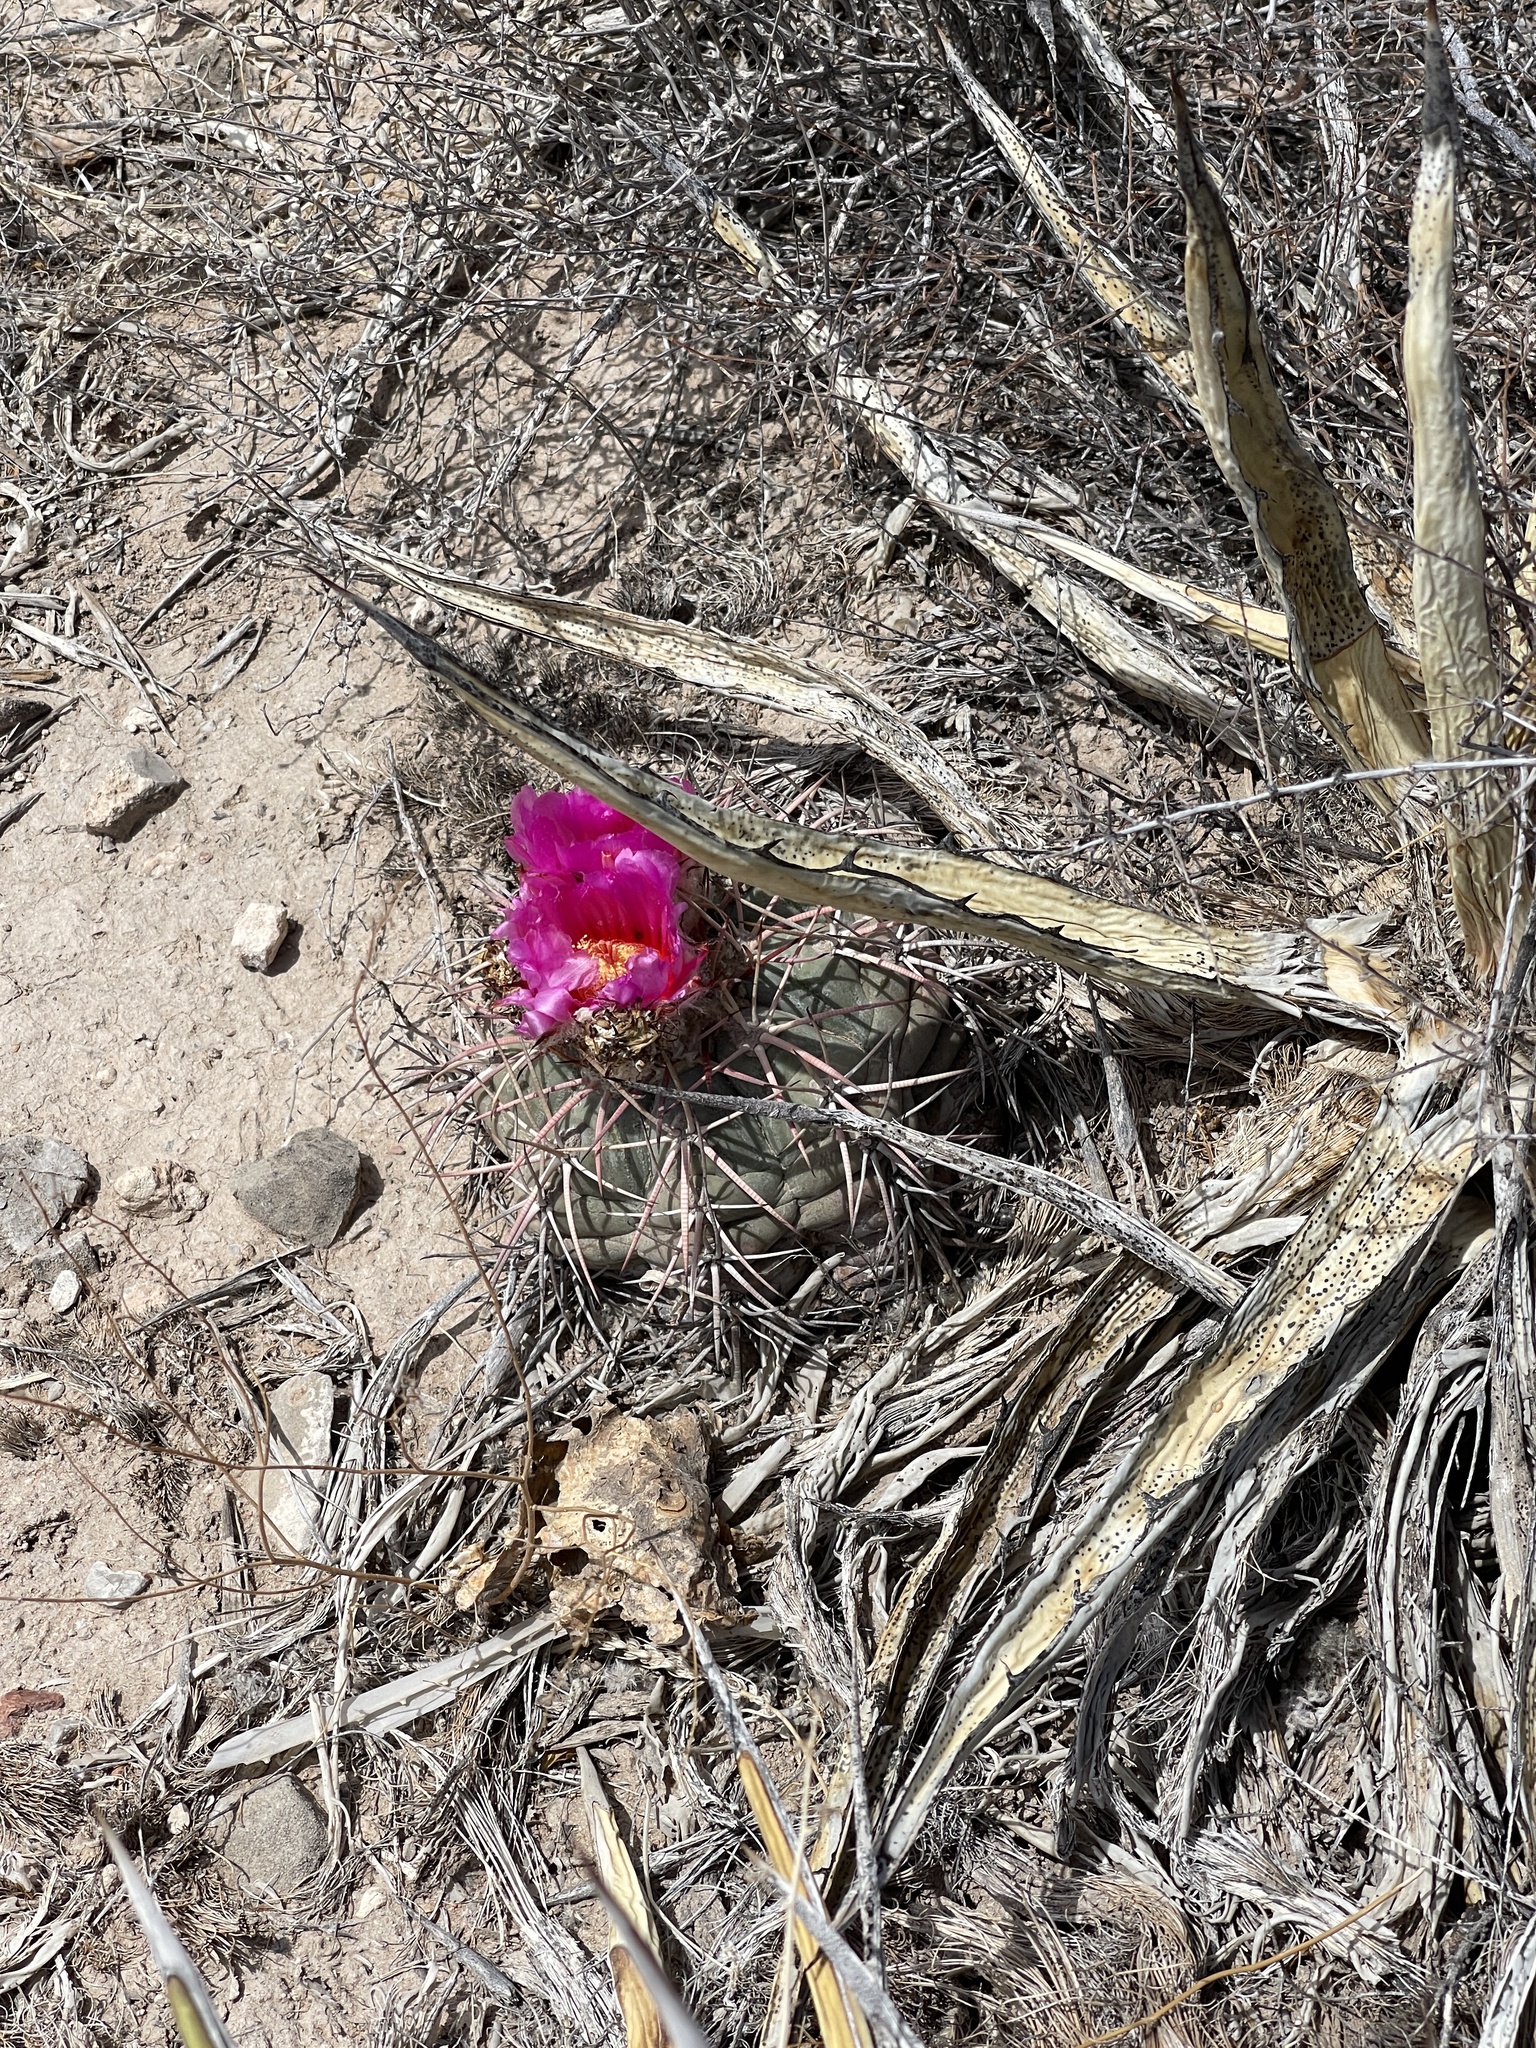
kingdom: Plantae
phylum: Tracheophyta
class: Magnoliopsida
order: Caryophyllales
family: Cactaceae
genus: Echinocactus
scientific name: Echinocactus horizonthalonius
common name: Devilshead
